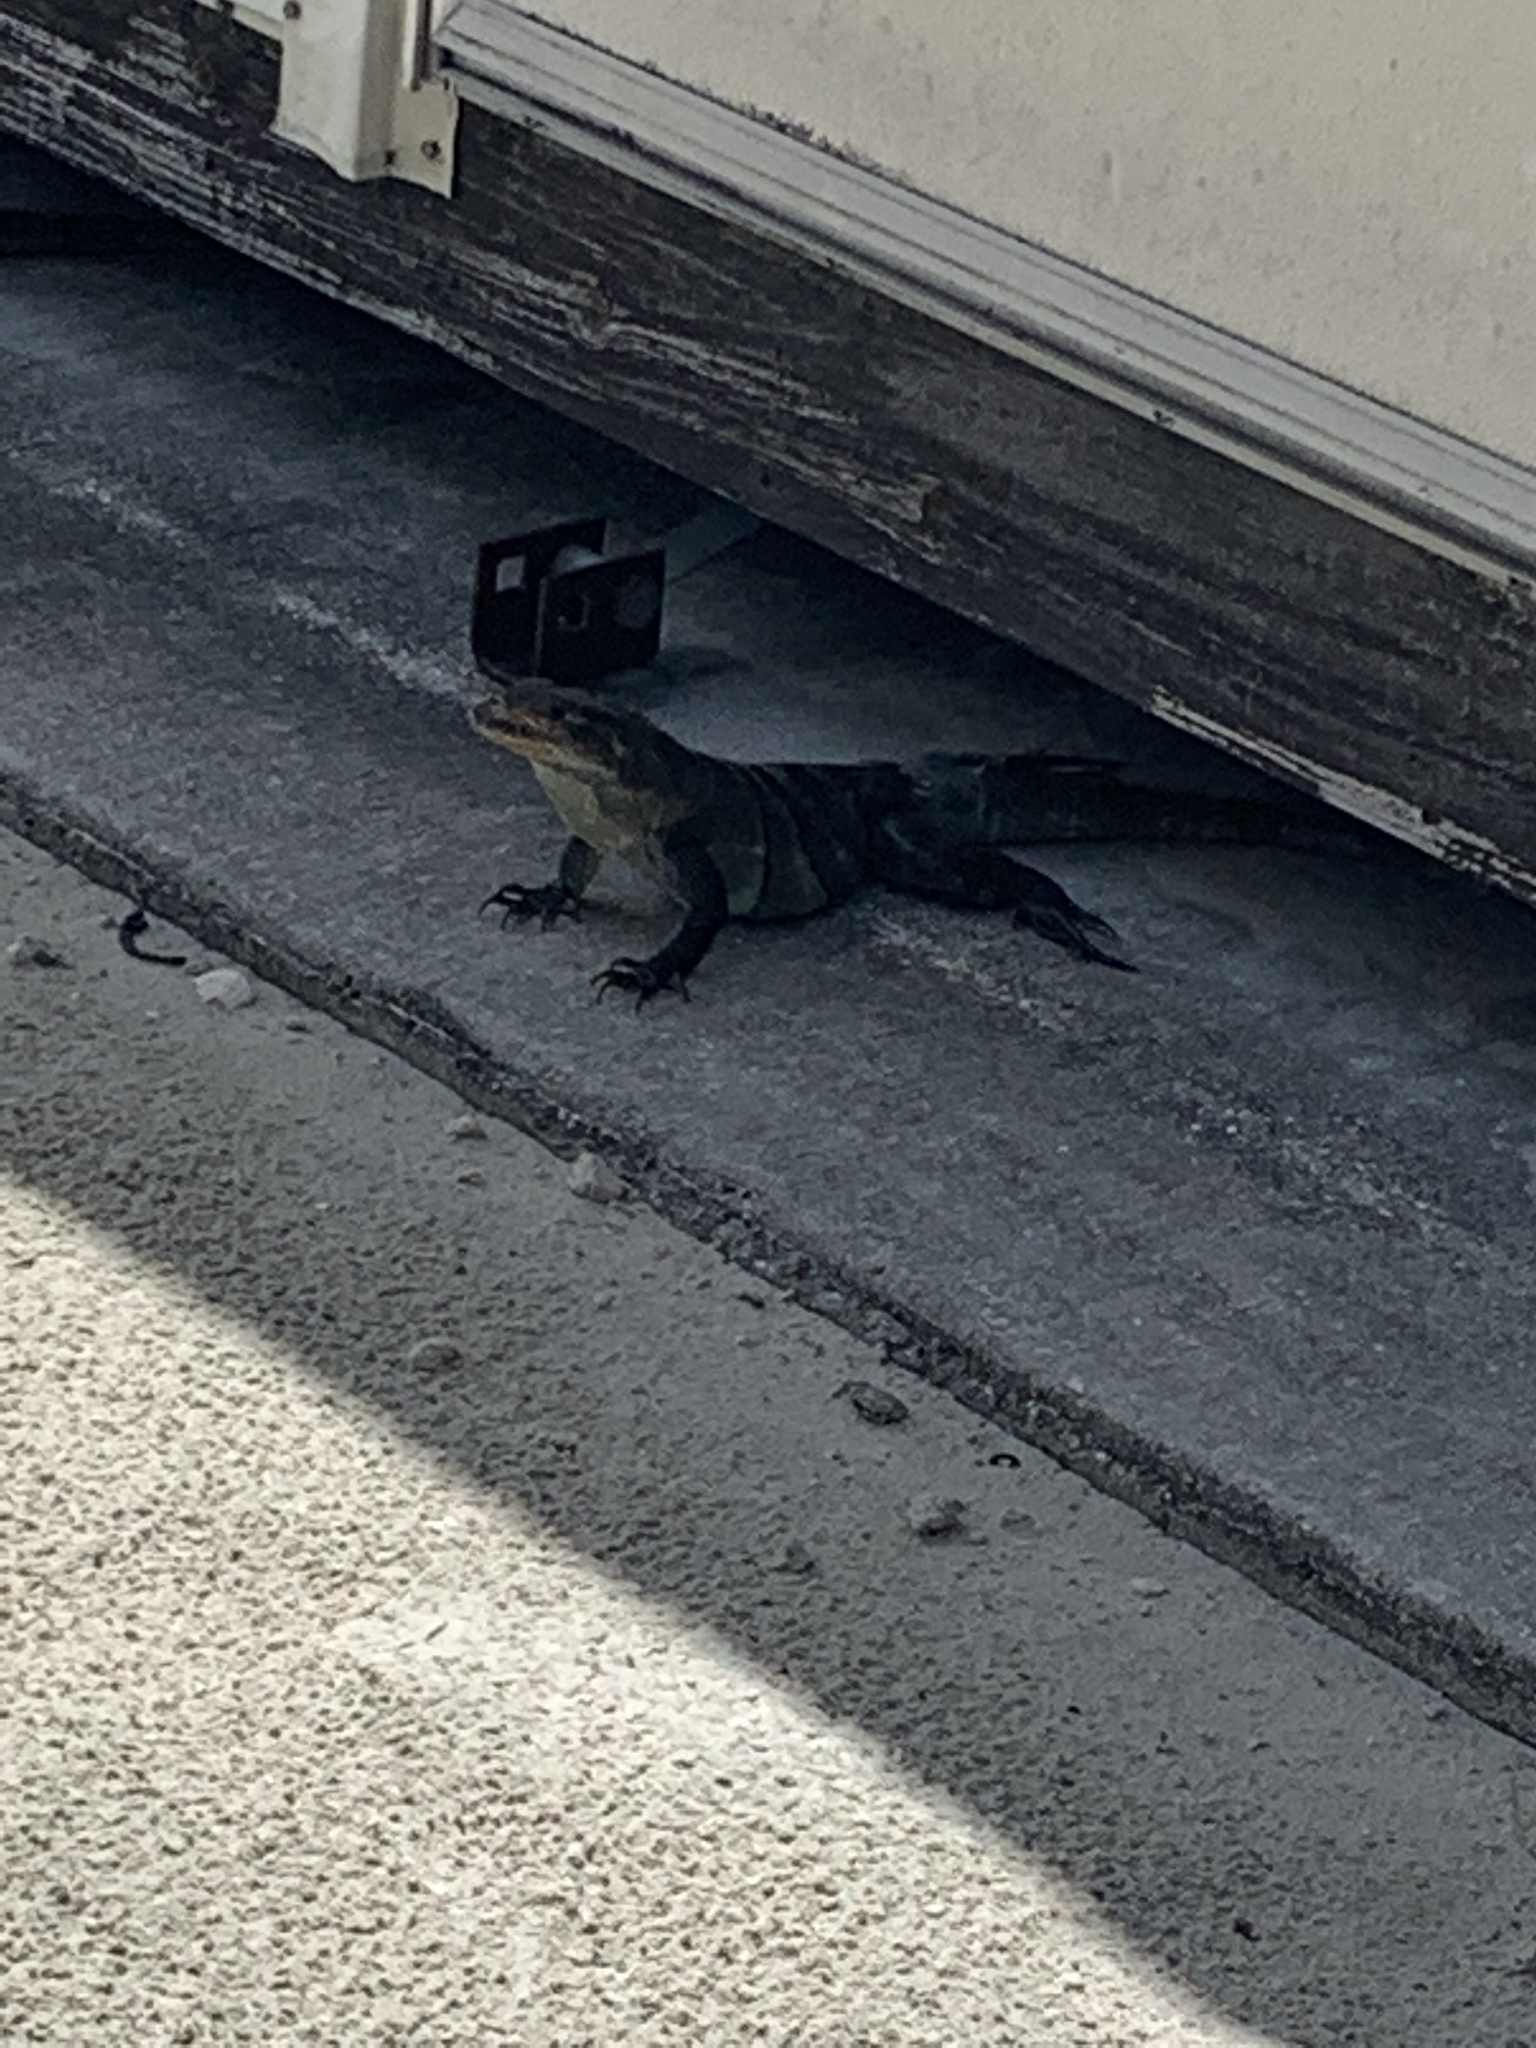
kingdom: Animalia
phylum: Chordata
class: Squamata
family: Iguanidae
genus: Ctenosaura
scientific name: Ctenosaura similis
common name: Black spiny-tailed iguana
